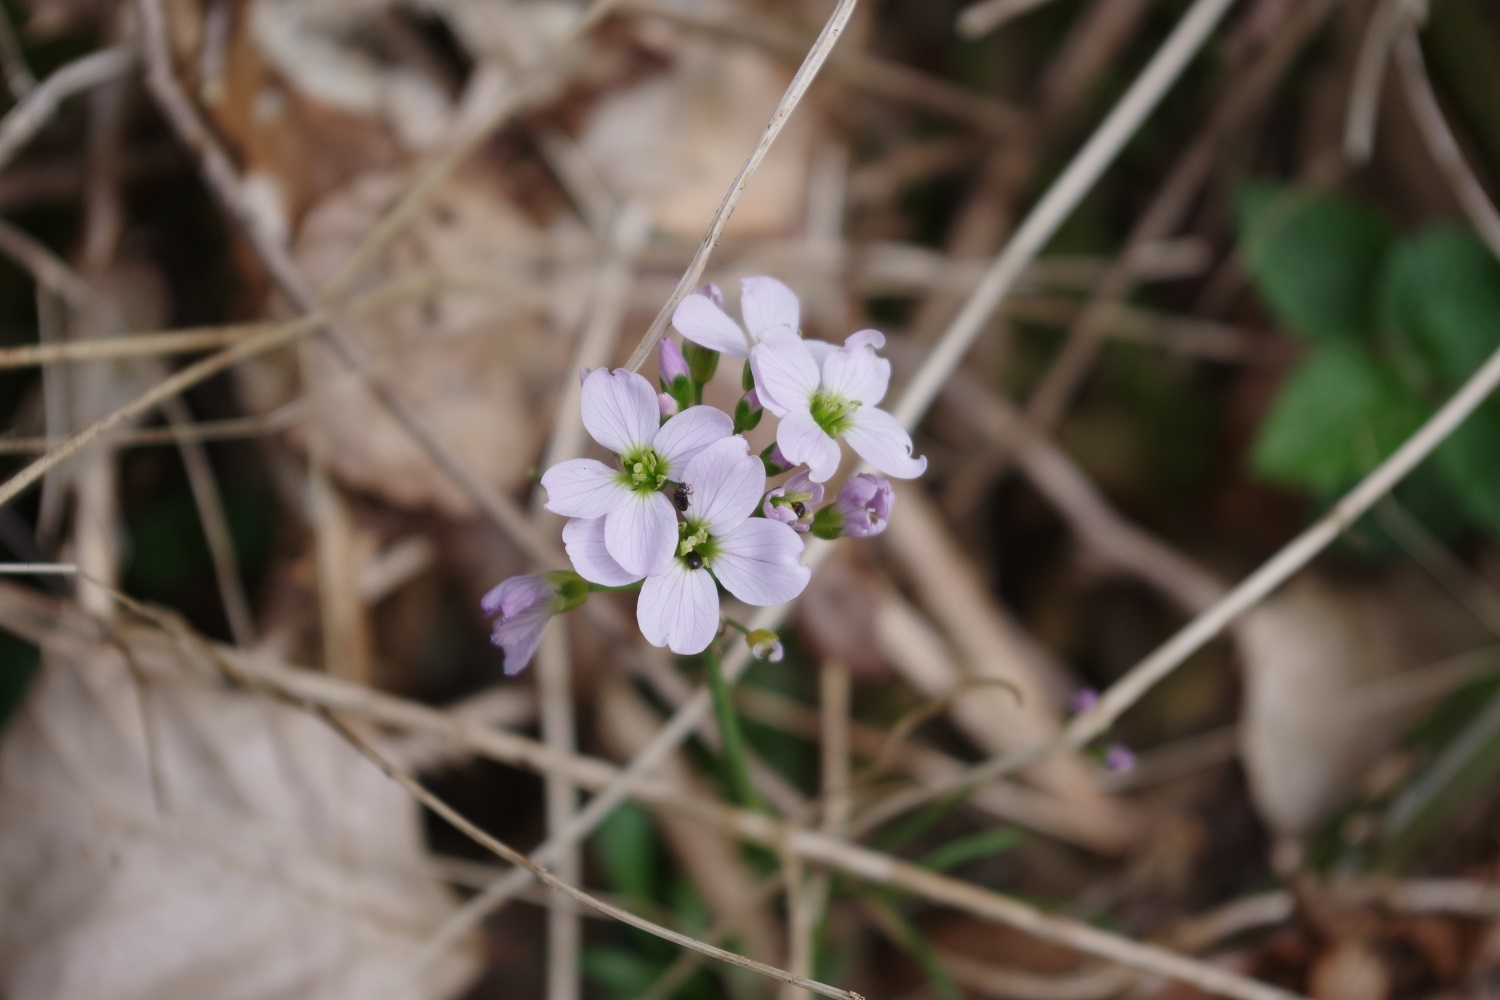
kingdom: Plantae
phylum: Tracheophyta
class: Magnoliopsida
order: Brassicales
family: Brassicaceae
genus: Cardamine
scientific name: Cardamine pratensis
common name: Cuckoo flower
